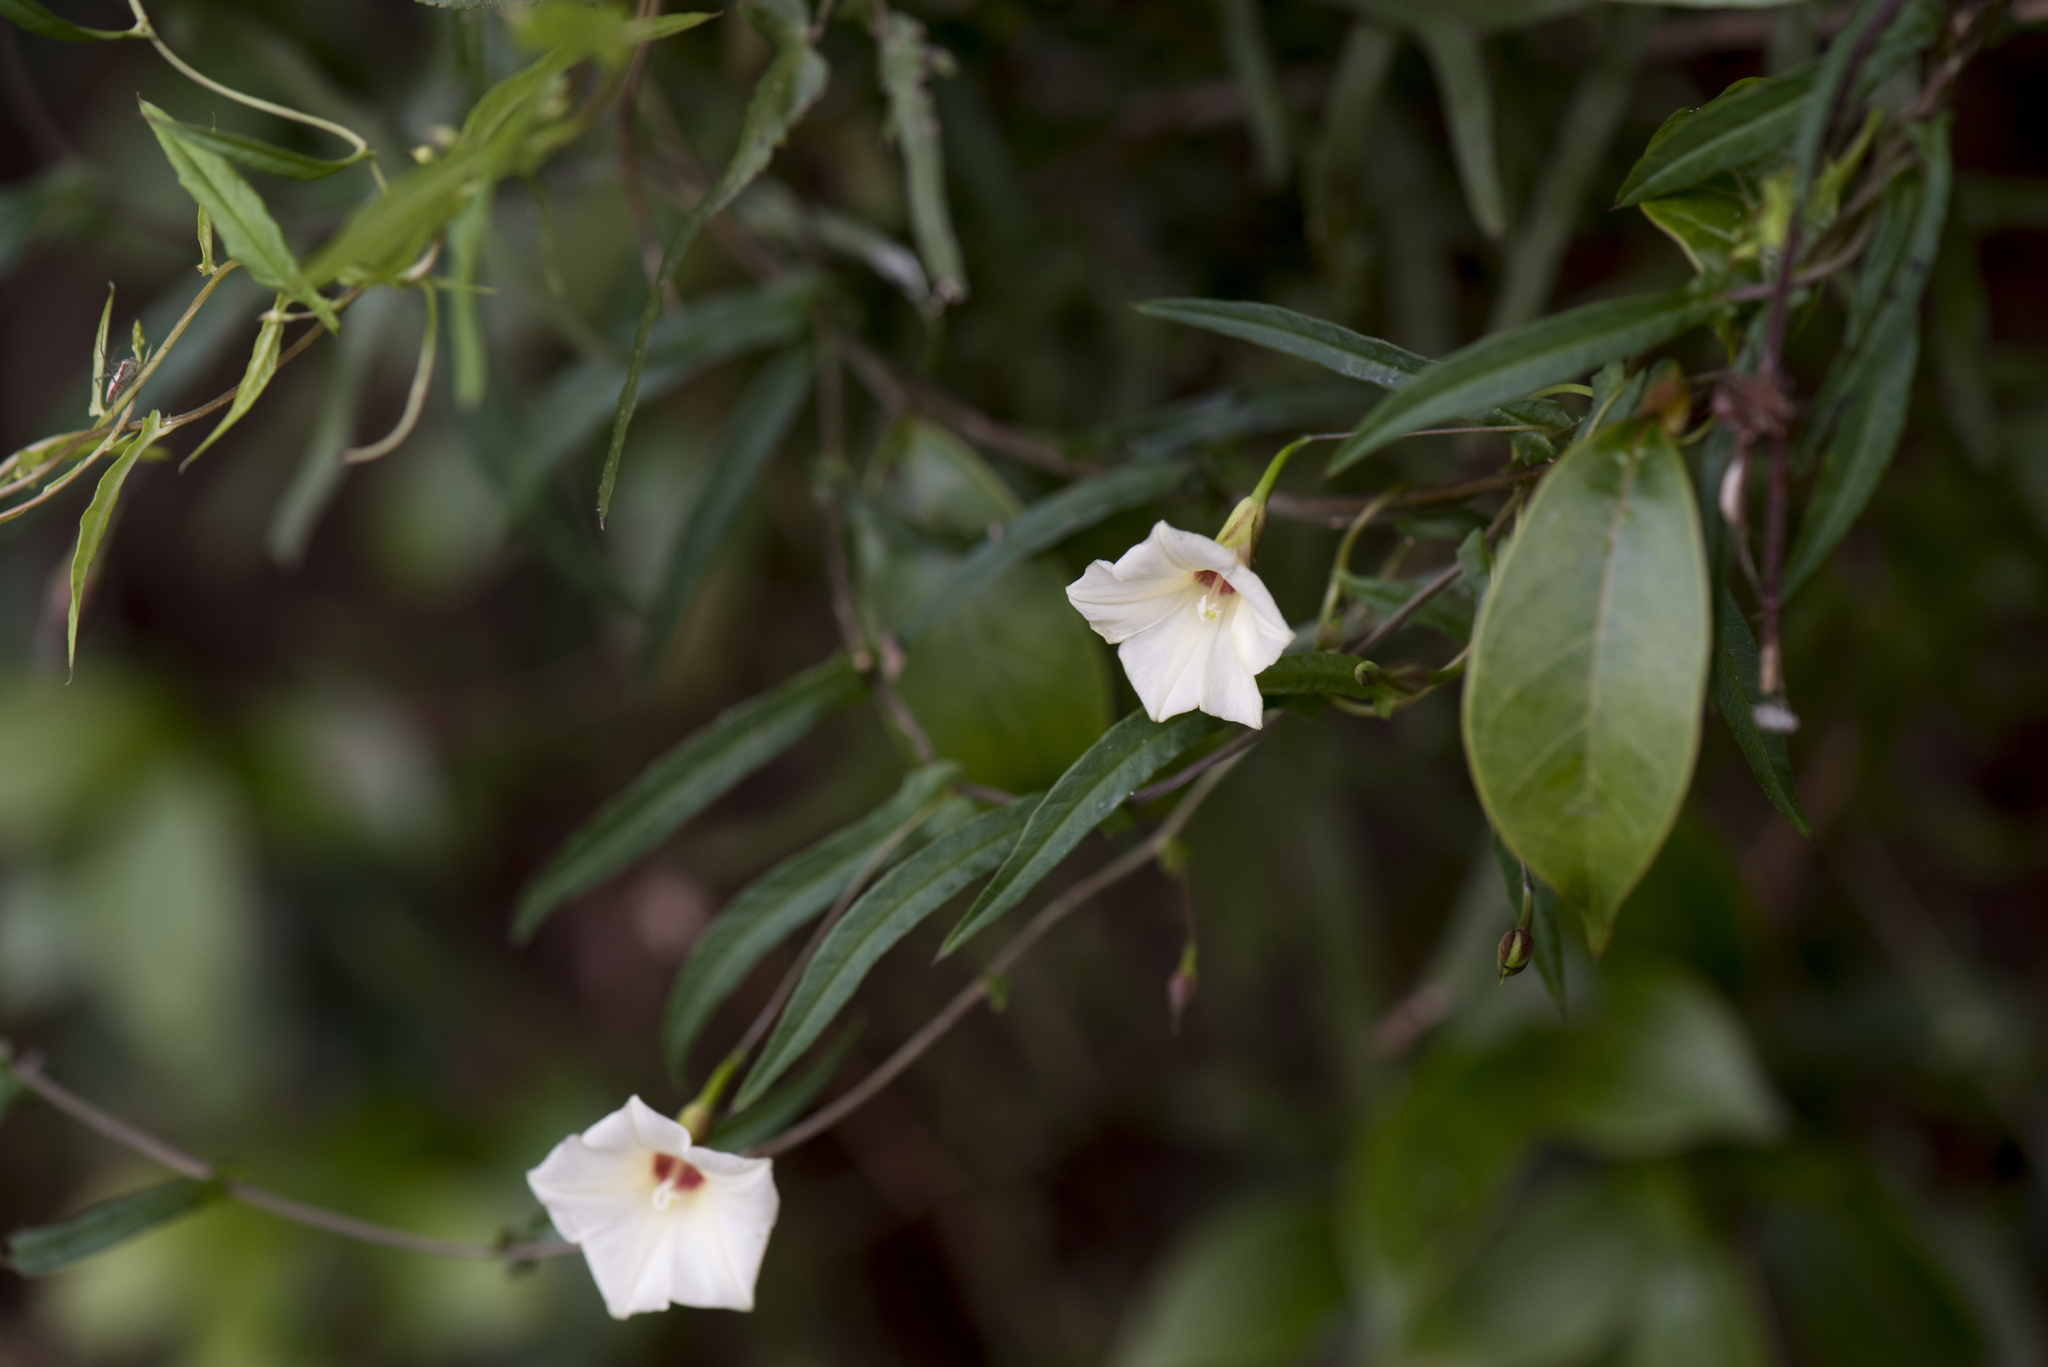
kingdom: Plantae
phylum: Tracheophyta
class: Magnoliopsida
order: Solanales
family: Convolvulaceae
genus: Xenostegia
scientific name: Xenostegia tridentata
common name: African morningvine
